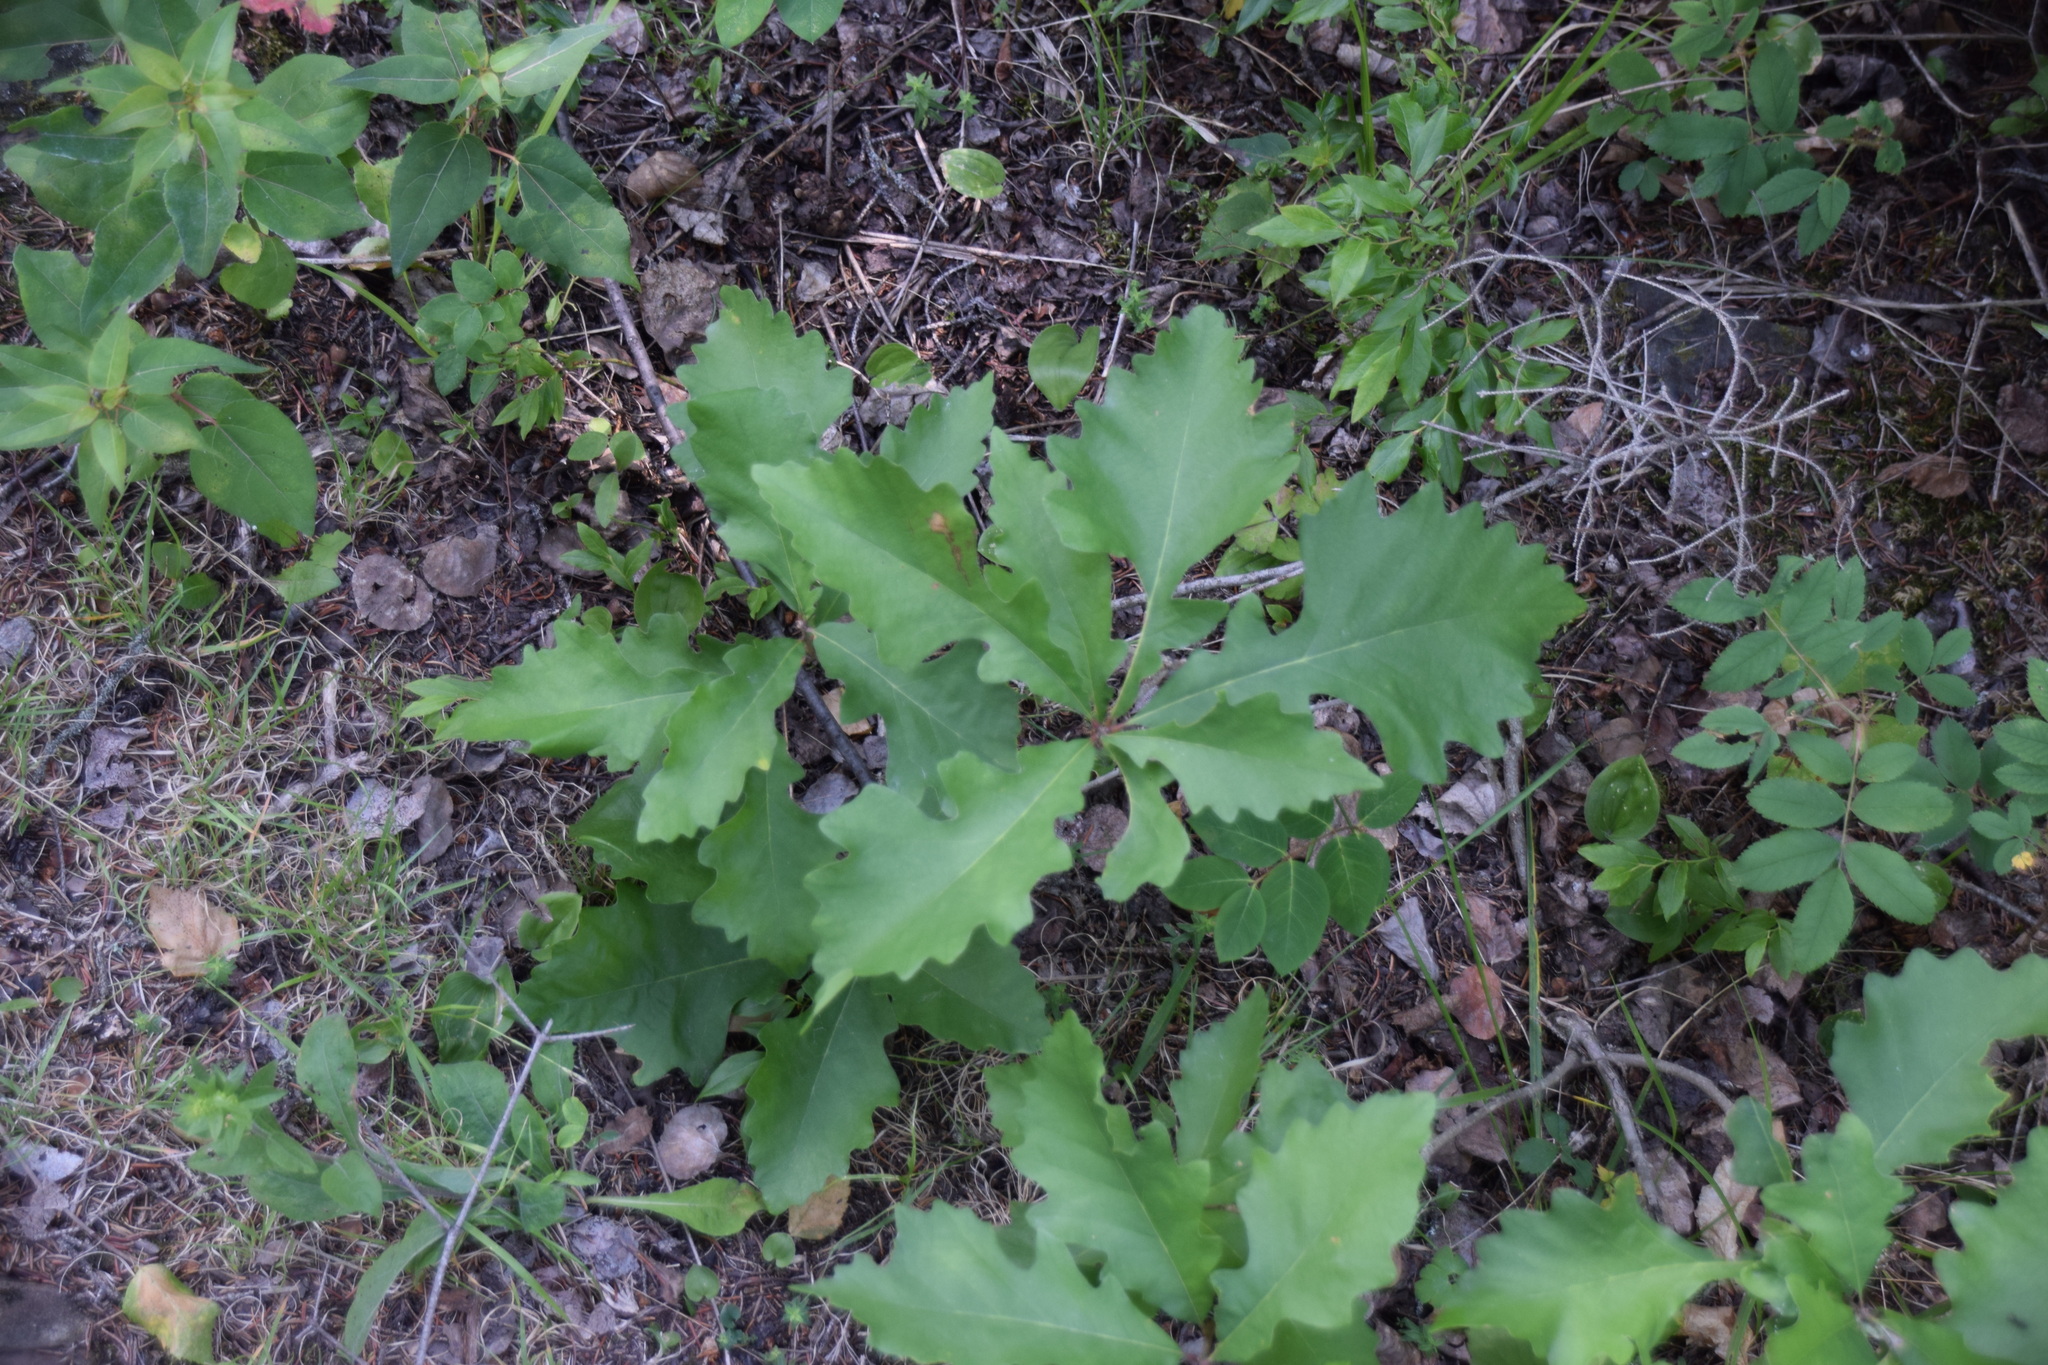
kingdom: Plantae
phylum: Tracheophyta
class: Magnoliopsida
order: Fagales
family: Fagaceae
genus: Quercus
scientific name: Quercus macrocarpa
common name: Bur oak
